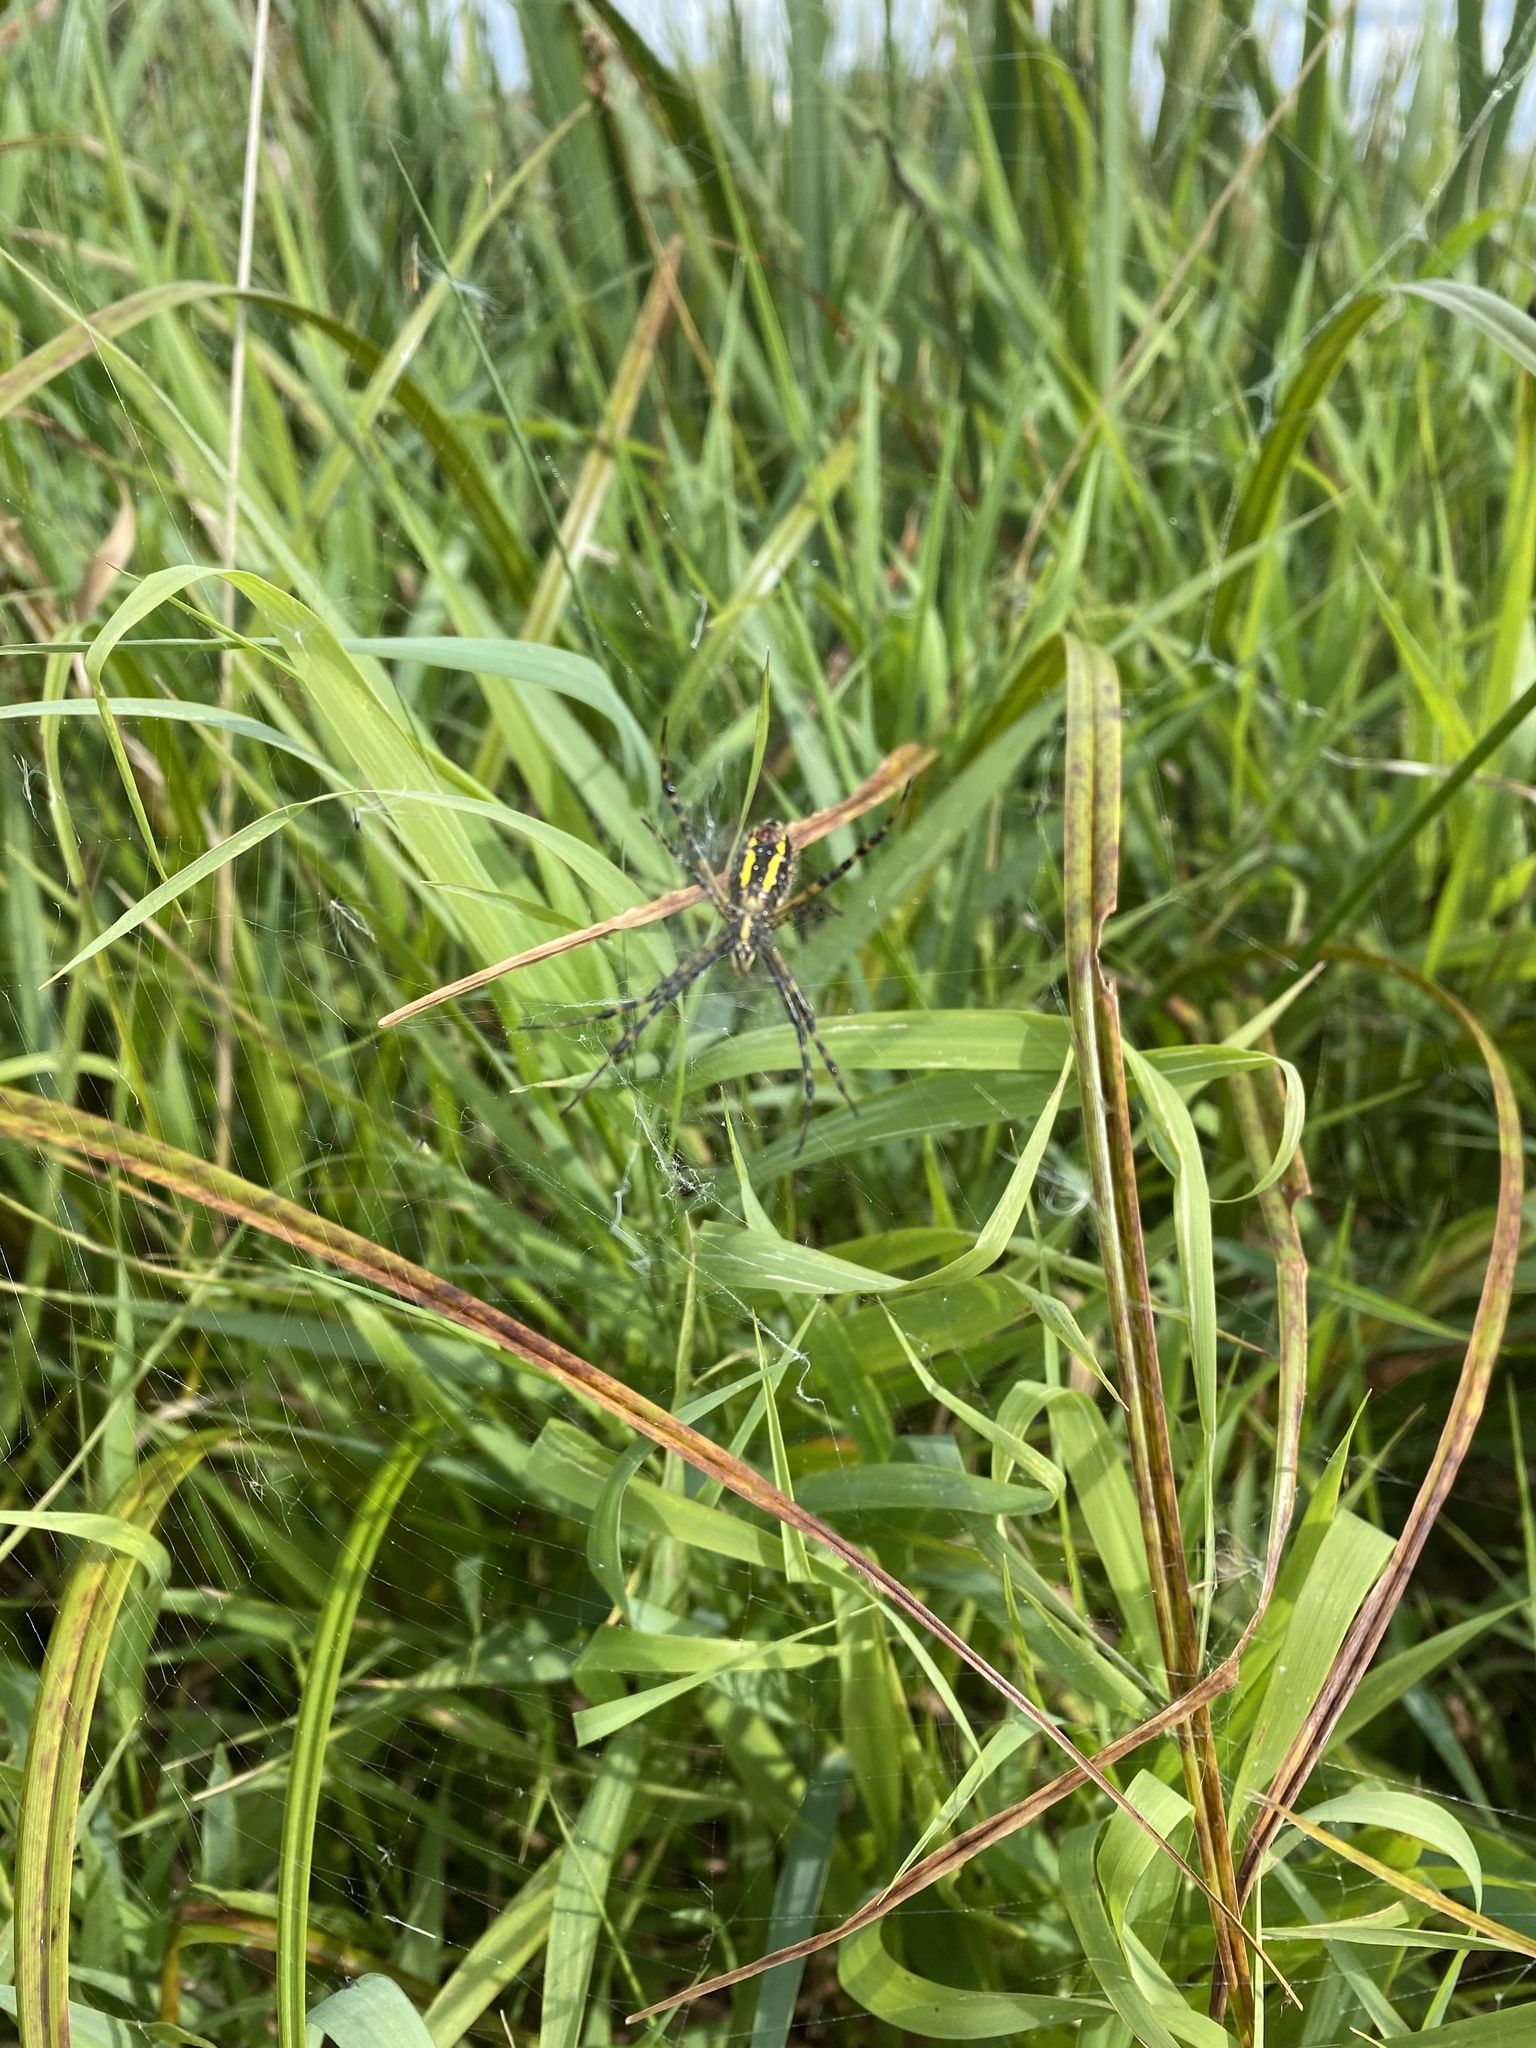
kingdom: Animalia
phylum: Arthropoda
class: Arachnida
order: Araneae
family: Araneidae
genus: Argiope
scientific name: Argiope trifasciata
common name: Banded garden spider
